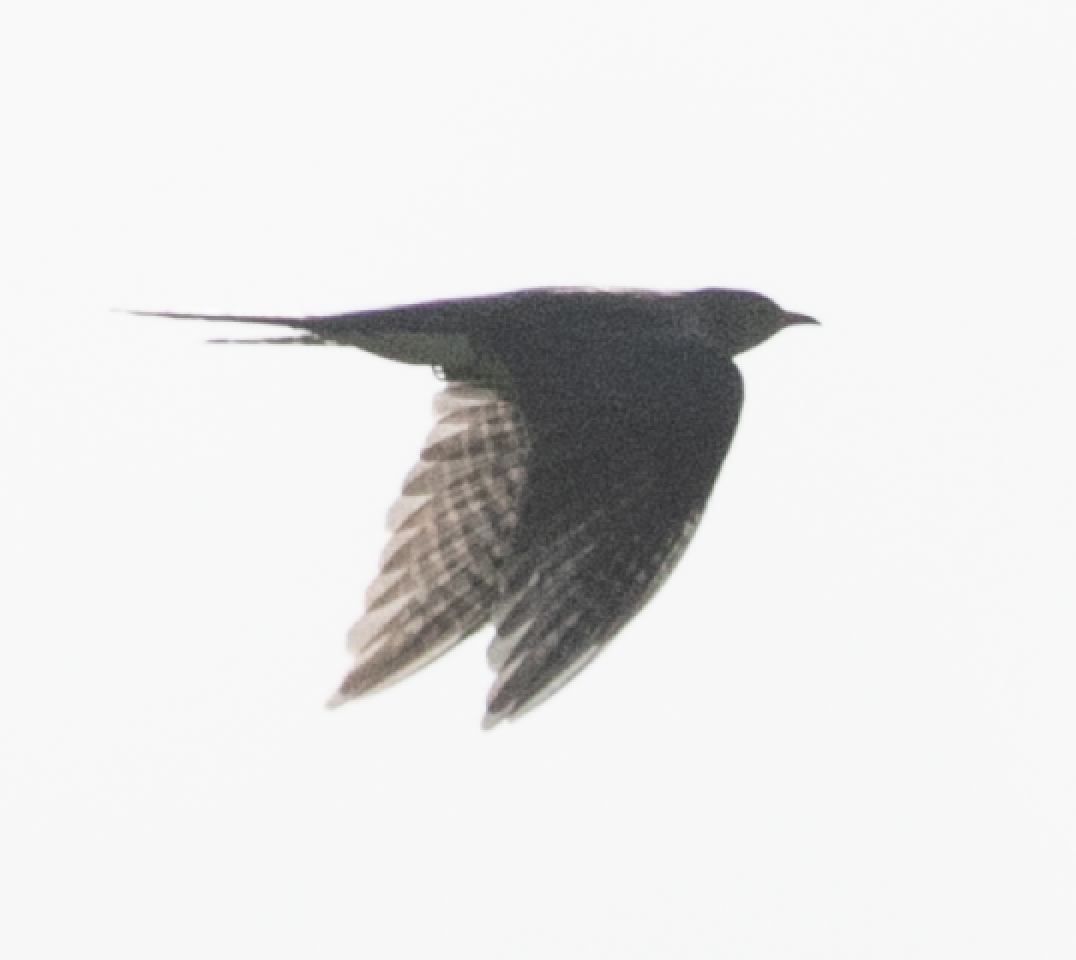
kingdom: Animalia
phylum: Chordata
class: Aves
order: Cuculiformes
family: Cuculidae
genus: Cuculus
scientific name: Cuculus canorus
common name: Common cuckoo
